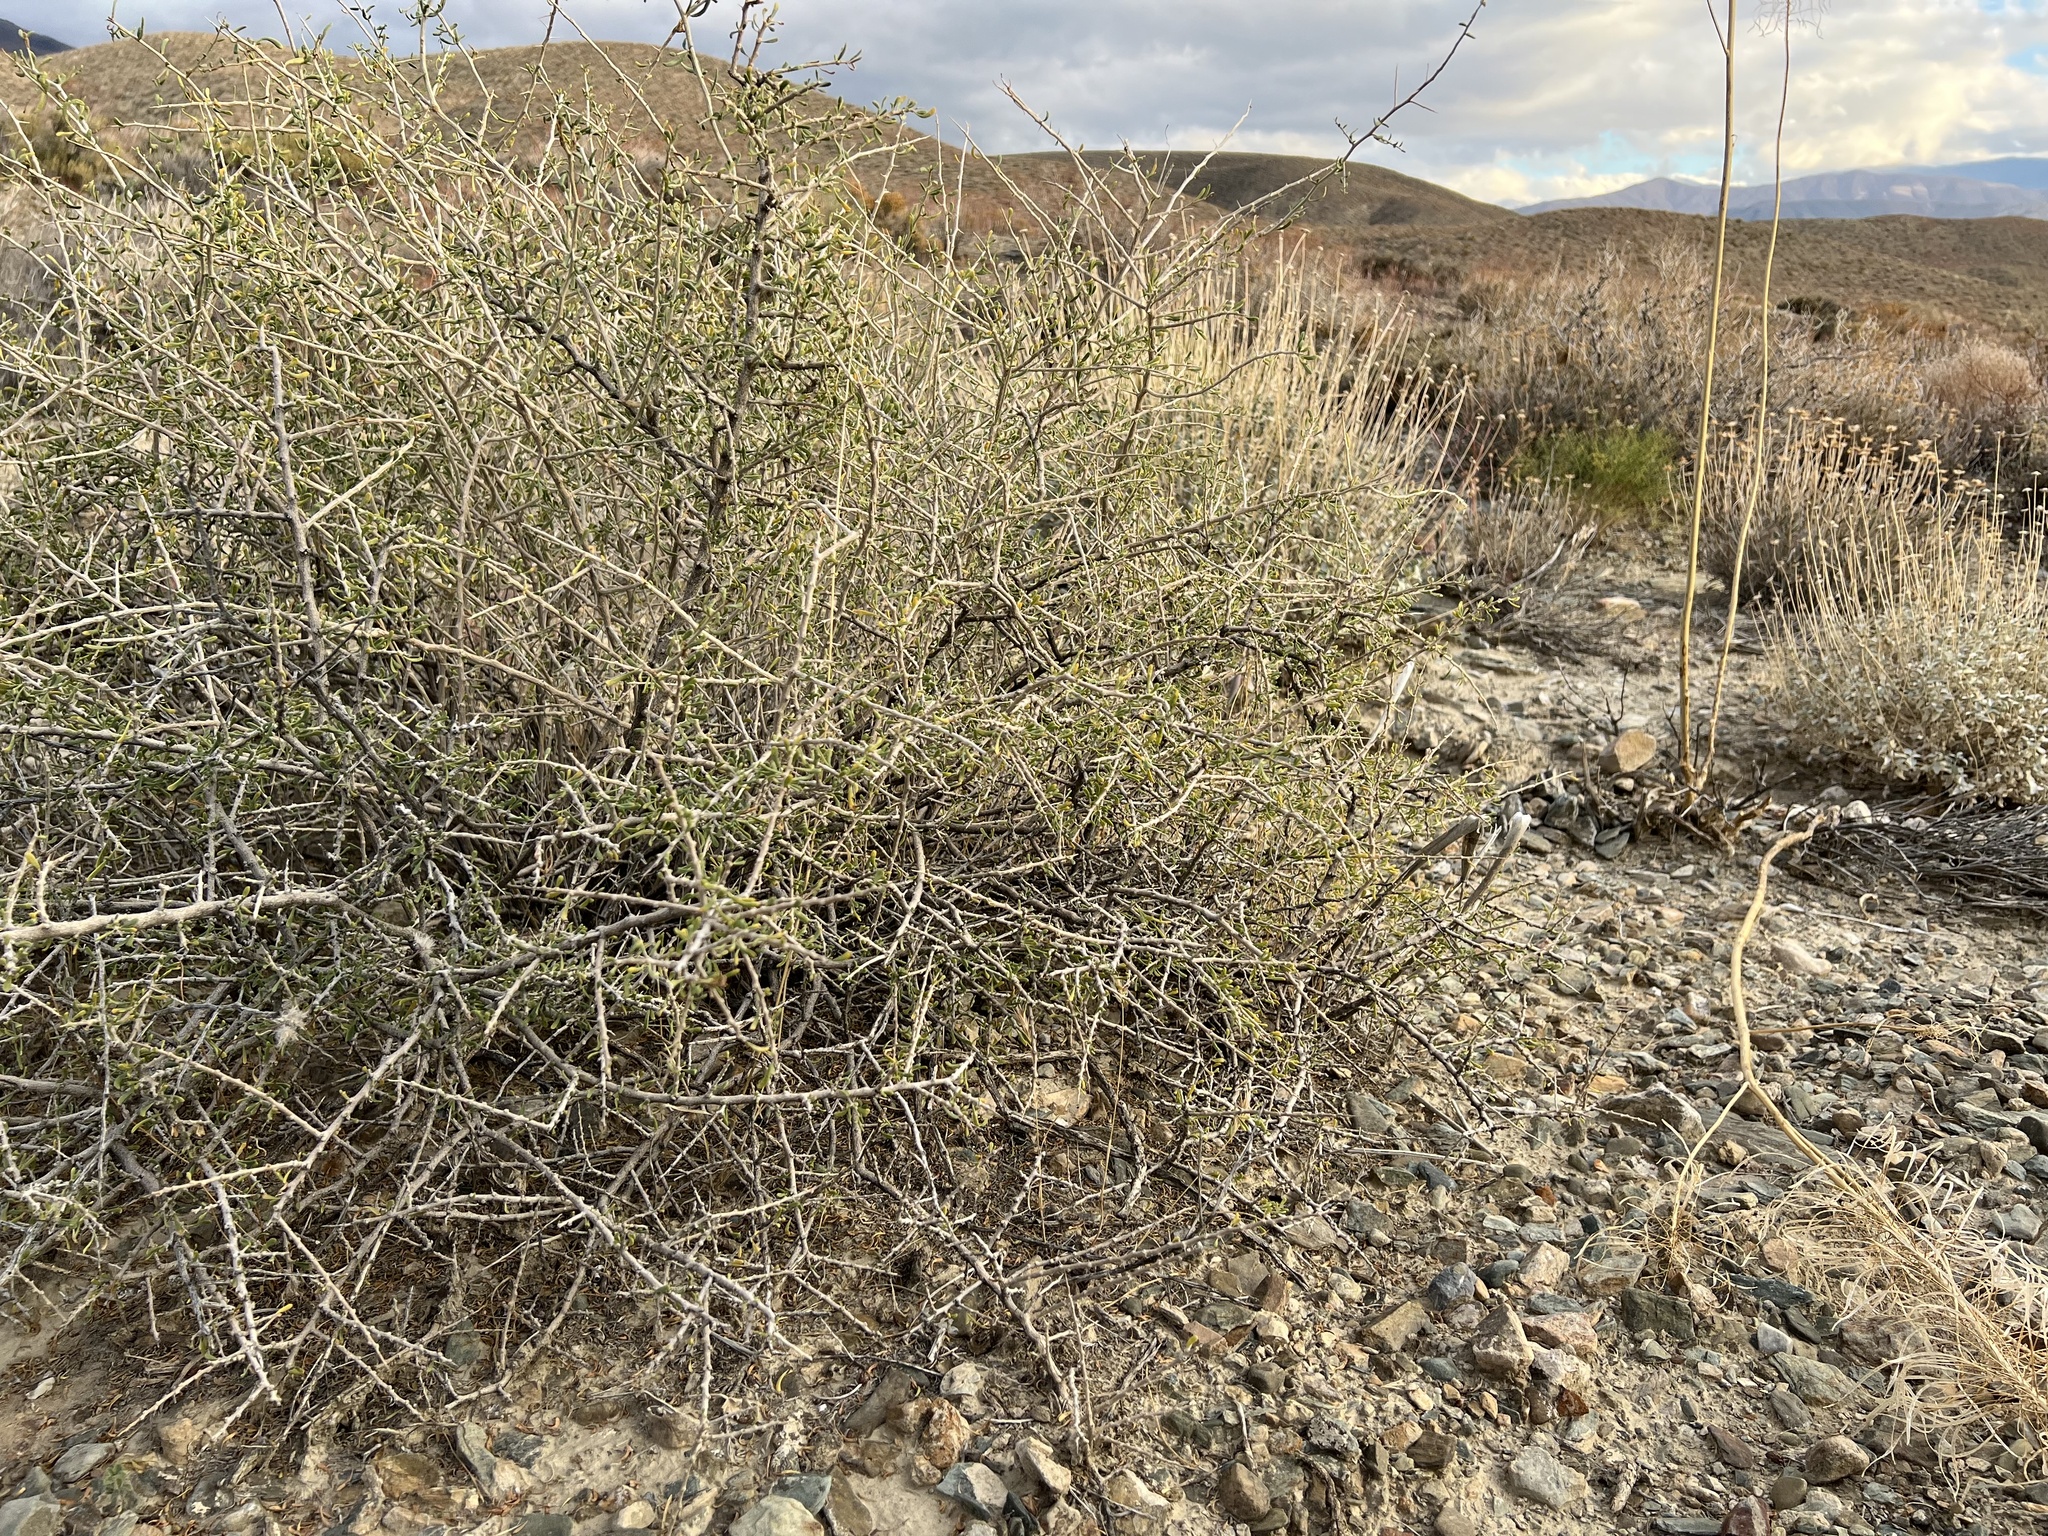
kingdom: Plantae
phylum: Tracheophyta
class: Magnoliopsida
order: Solanales
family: Solanaceae
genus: Lycium
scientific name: Lycium andersonii
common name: Water-jacket
